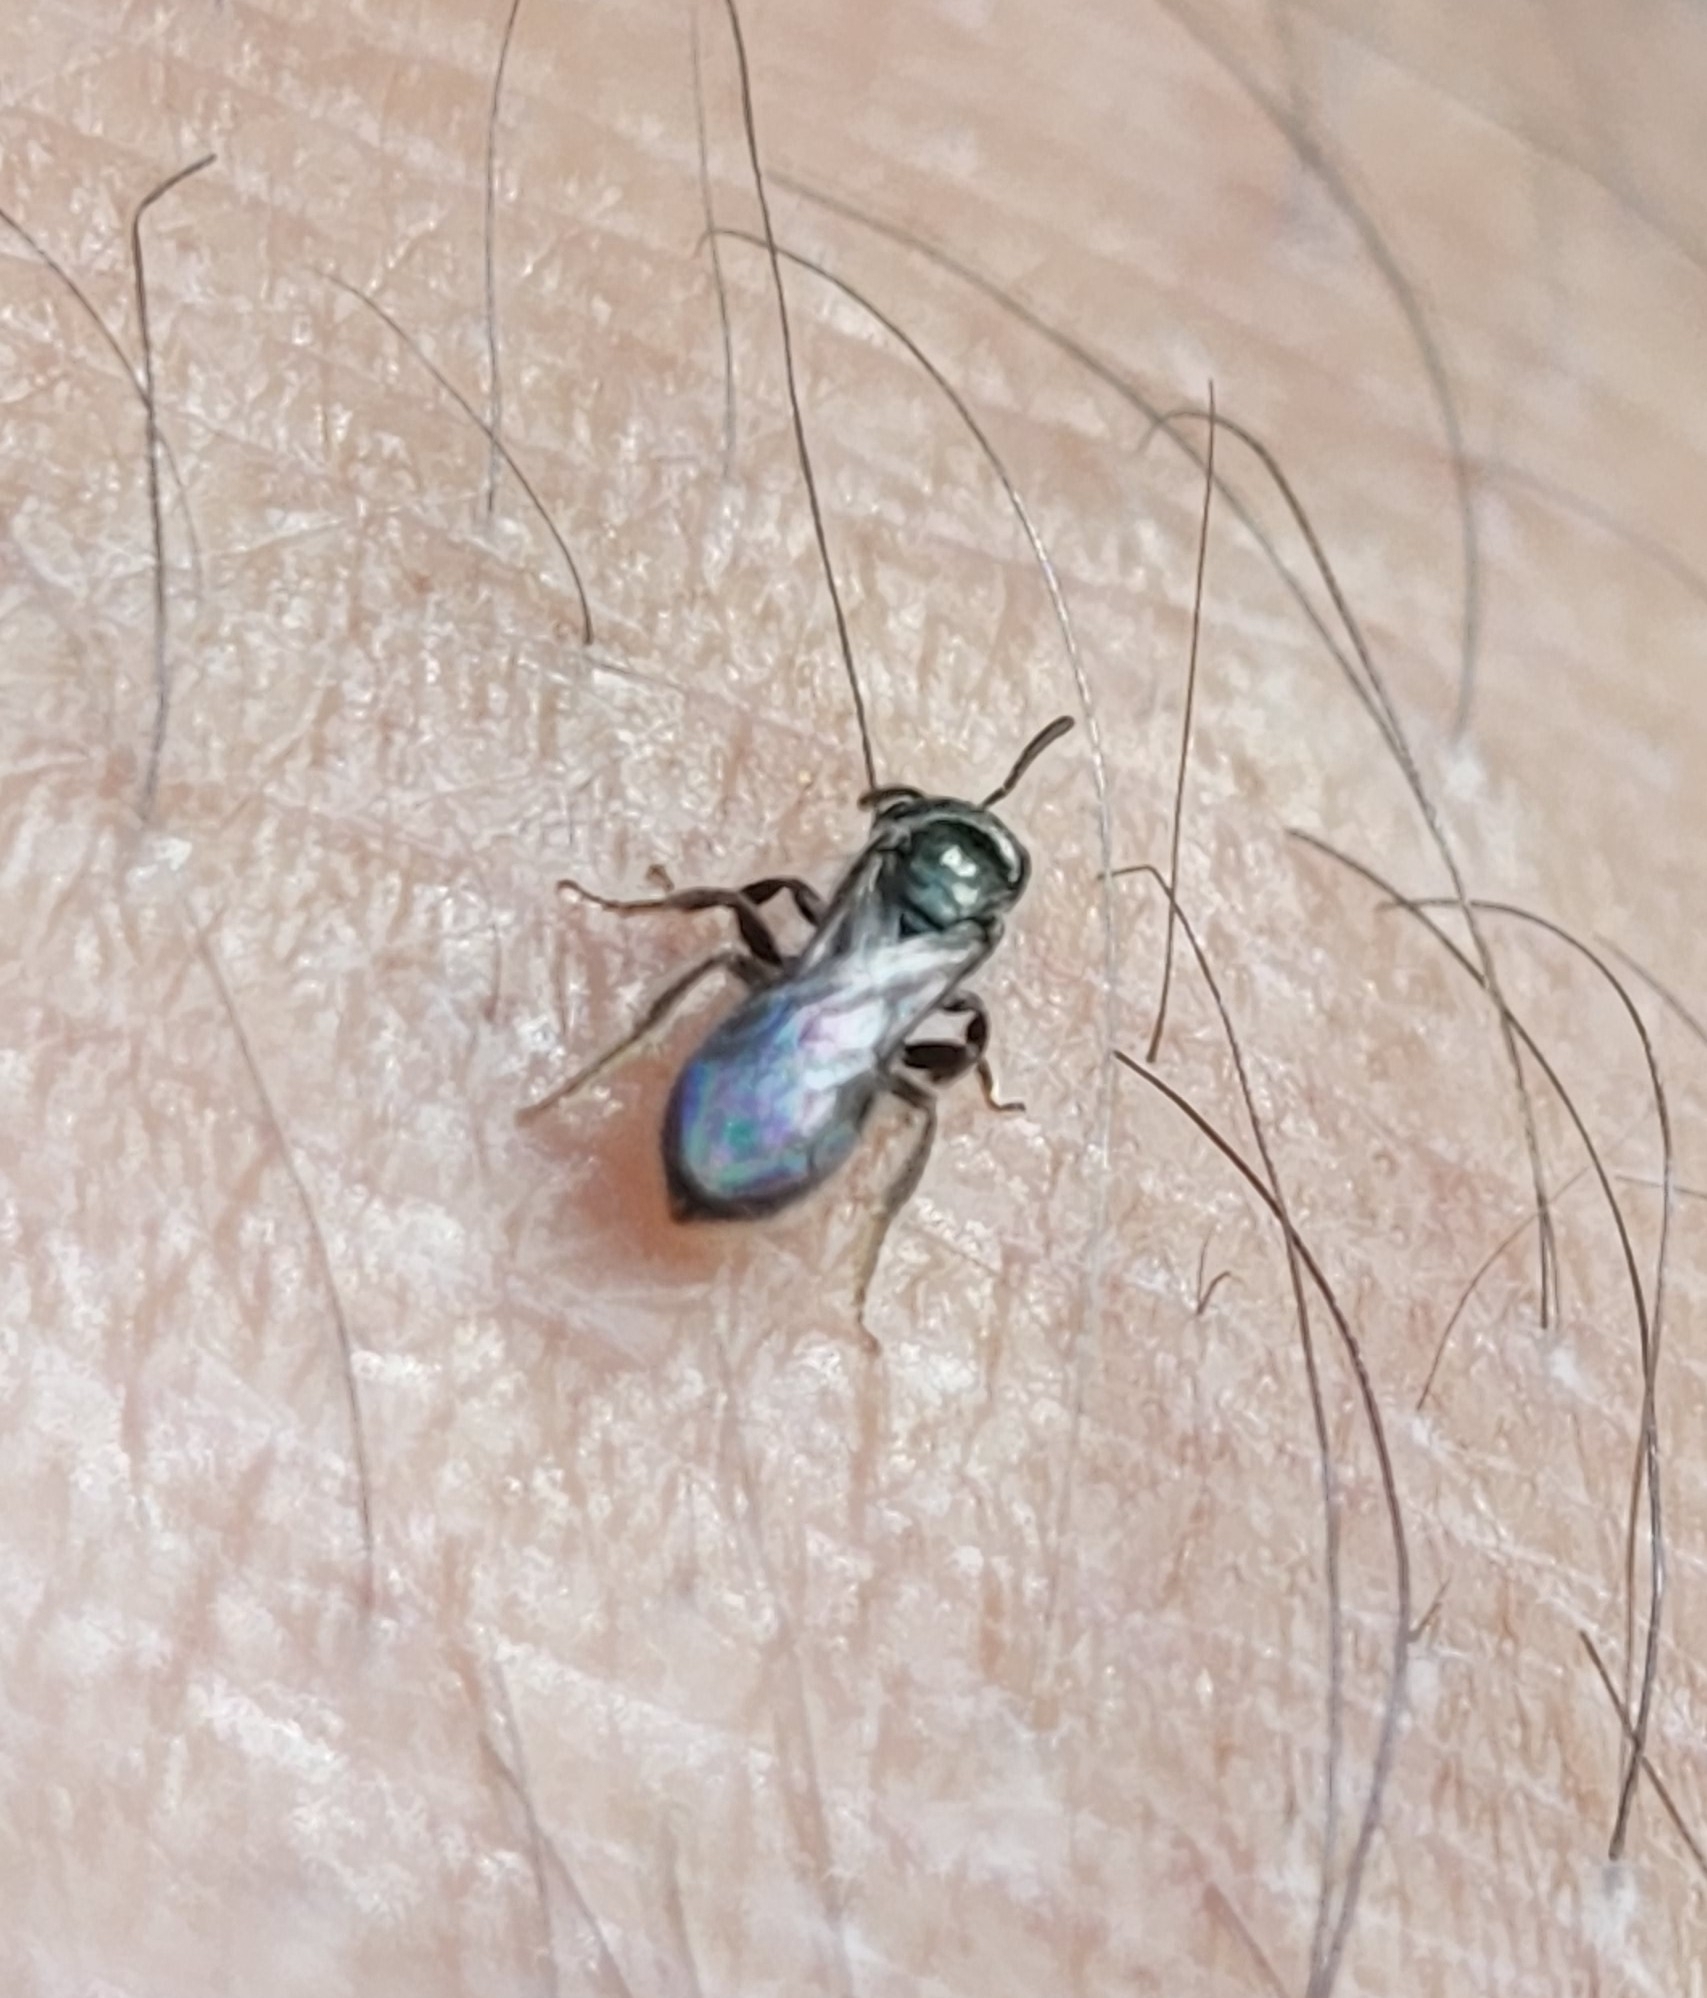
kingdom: Animalia
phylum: Arthropoda
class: Insecta
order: Hymenoptera
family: Halictidae
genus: Dialictus
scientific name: Dialictus
